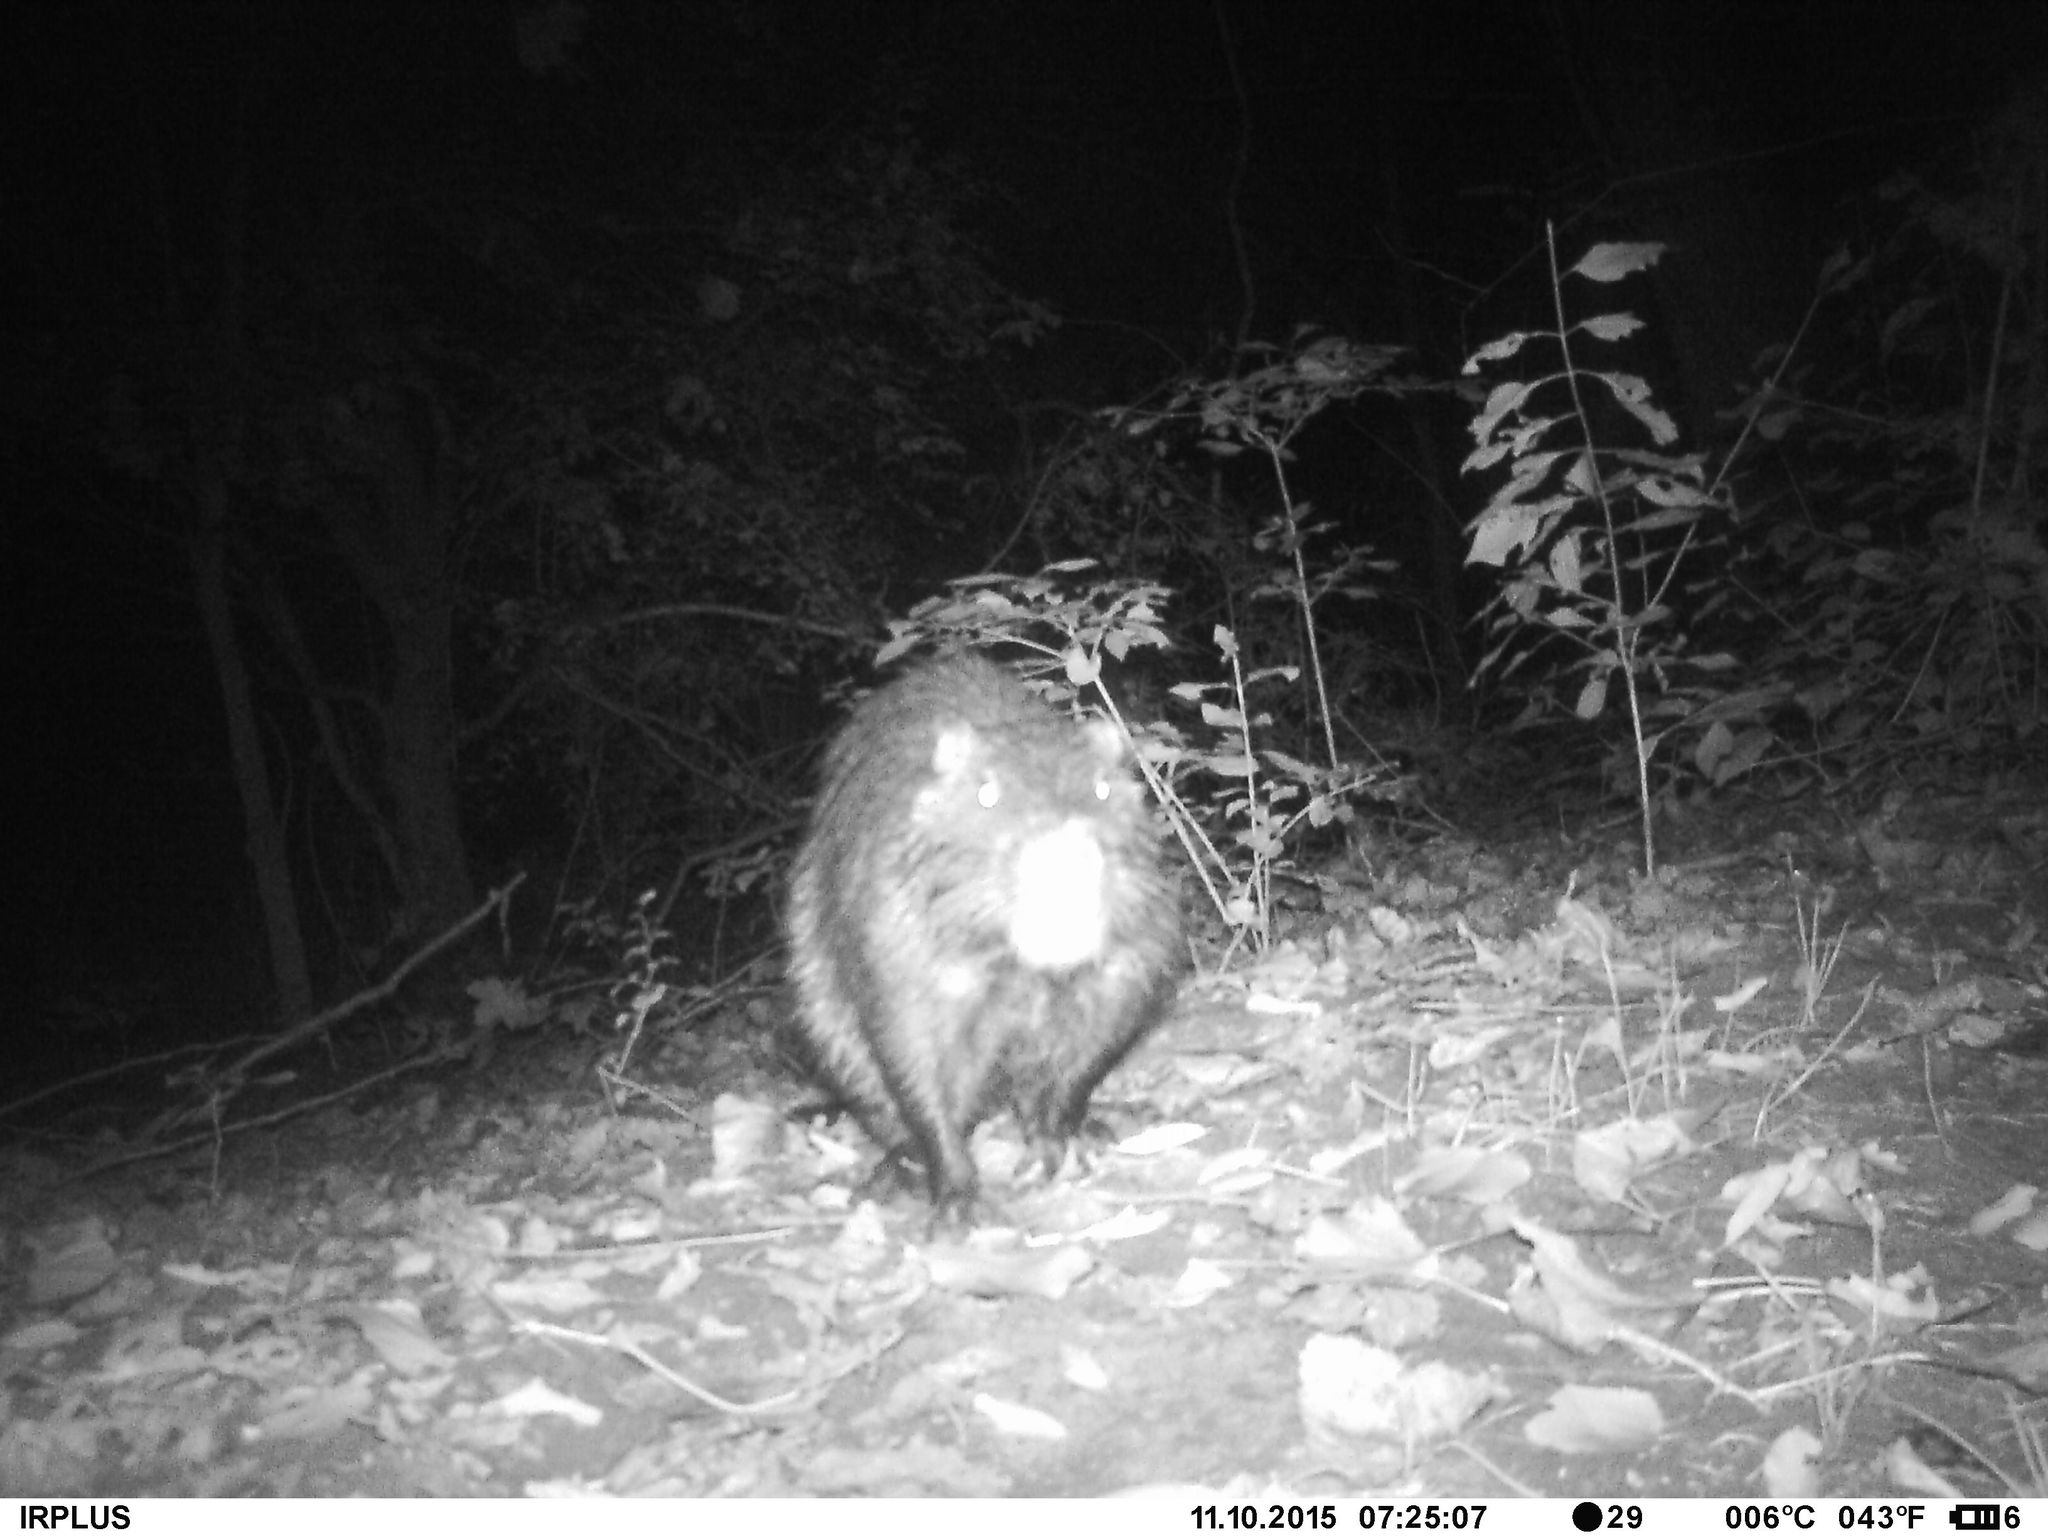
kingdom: Animalia
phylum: Chordata
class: Mammalia
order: Rodentia
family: Myocastoridae
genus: Myocastor
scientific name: Myocastor coypus
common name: Coypu
